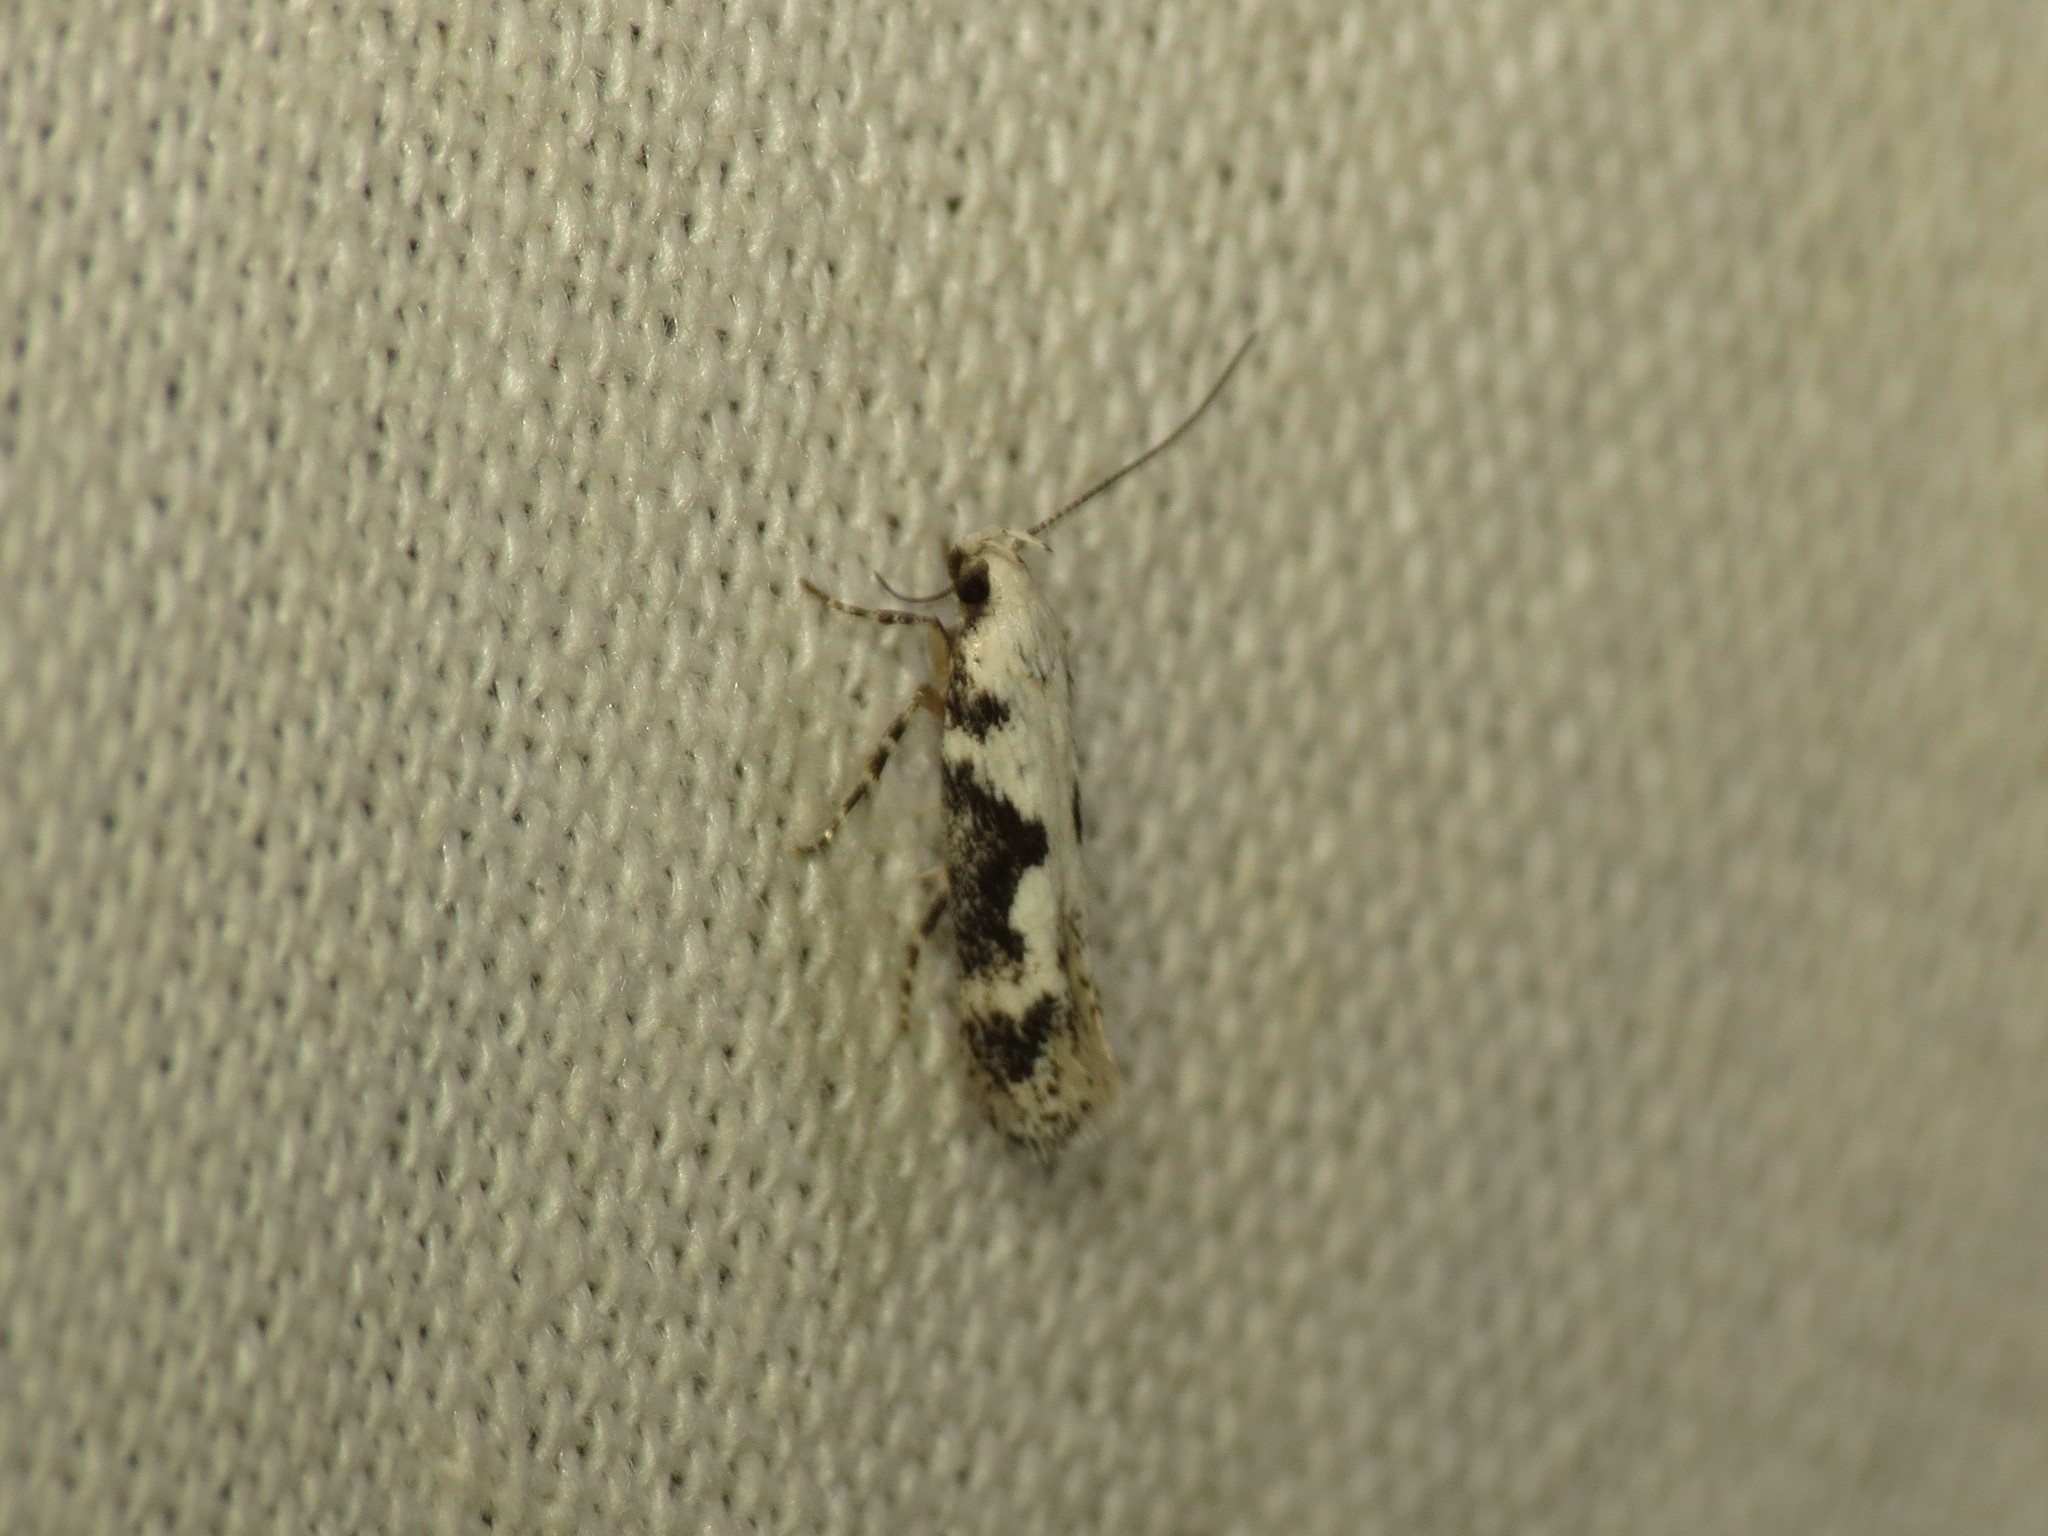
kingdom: Animalia
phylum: Arthropoda
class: Insecta
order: Lepidoptera
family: Gelechiidae
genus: Agnippe
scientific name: Agnippe laudatella
